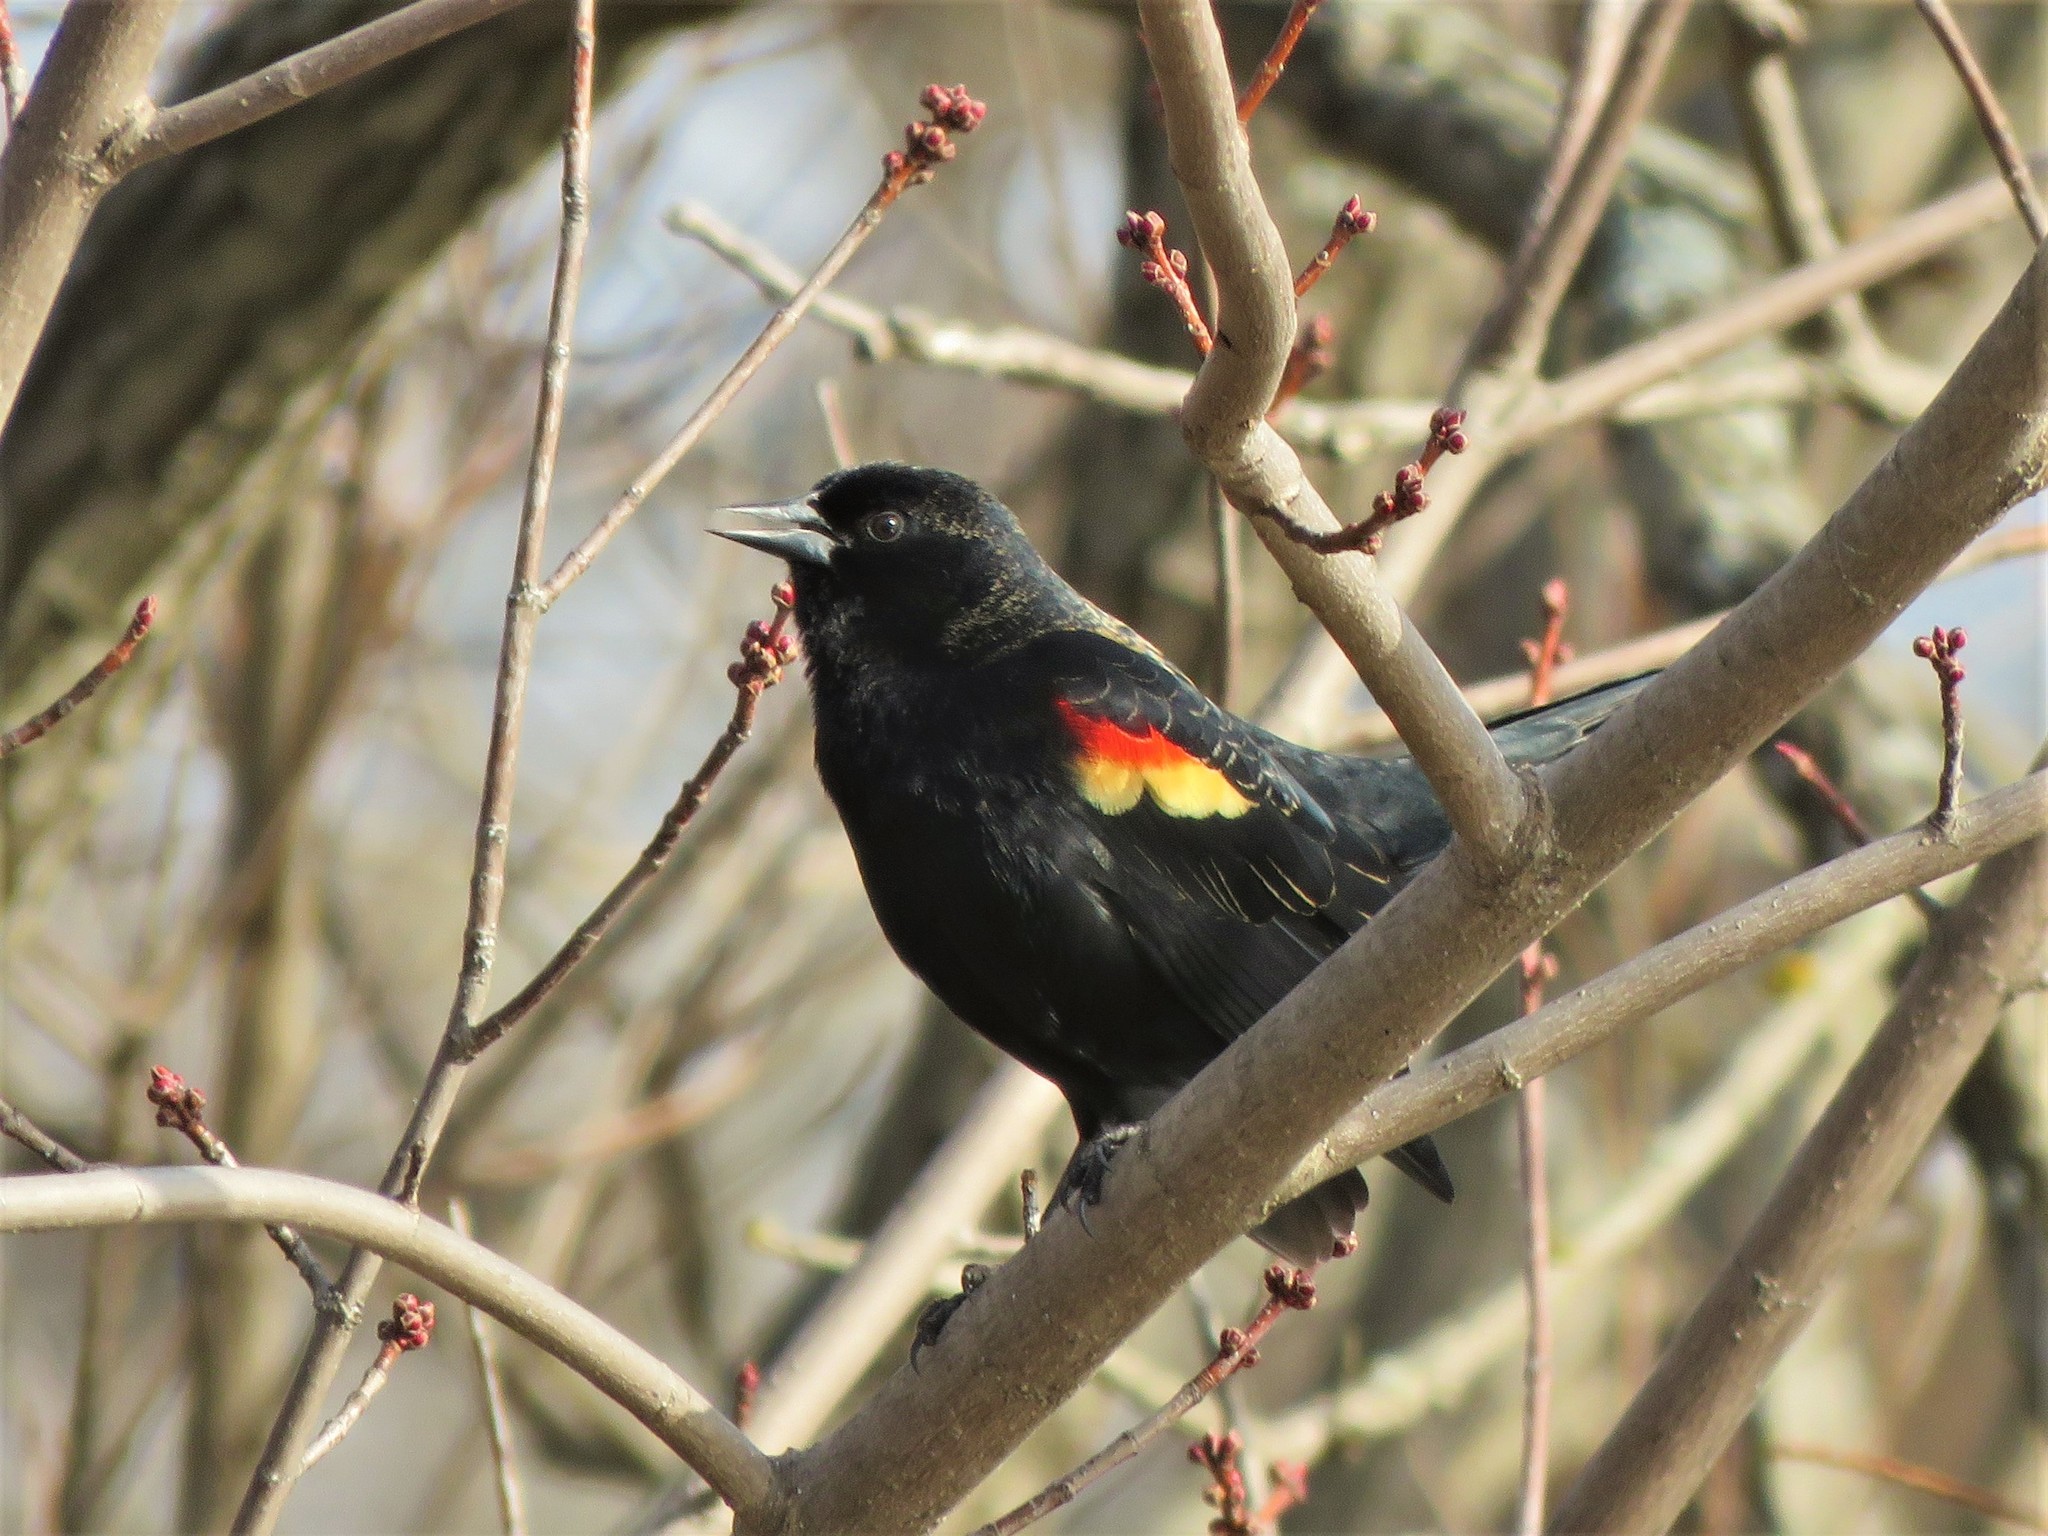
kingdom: Animalia
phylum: Chordata
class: Aves
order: Passeriformes
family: Icteridae
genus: Agelaius
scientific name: Agelaius phoeniceus
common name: Red-winged blackbird
